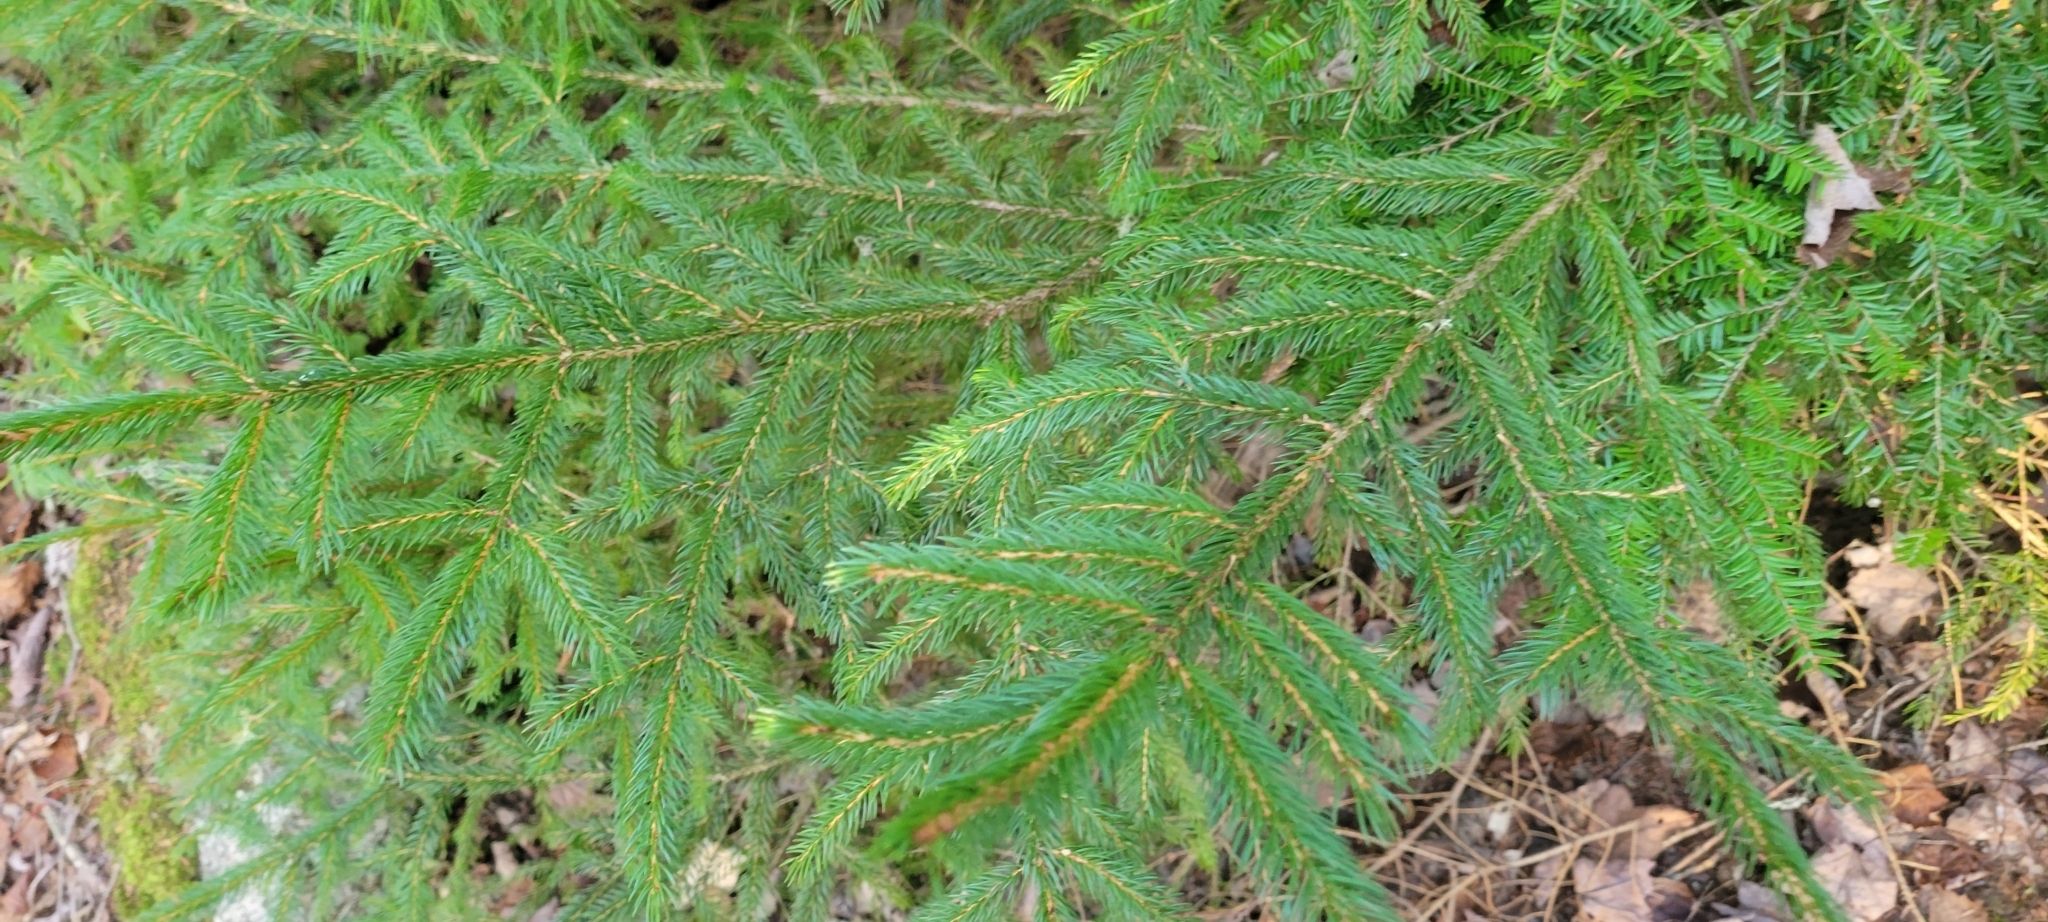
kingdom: Plantae
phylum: Tracheophyta
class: Pinopsida
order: Pinales
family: Pinaceae
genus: Picea
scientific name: Picea rubens
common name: Red spruce
